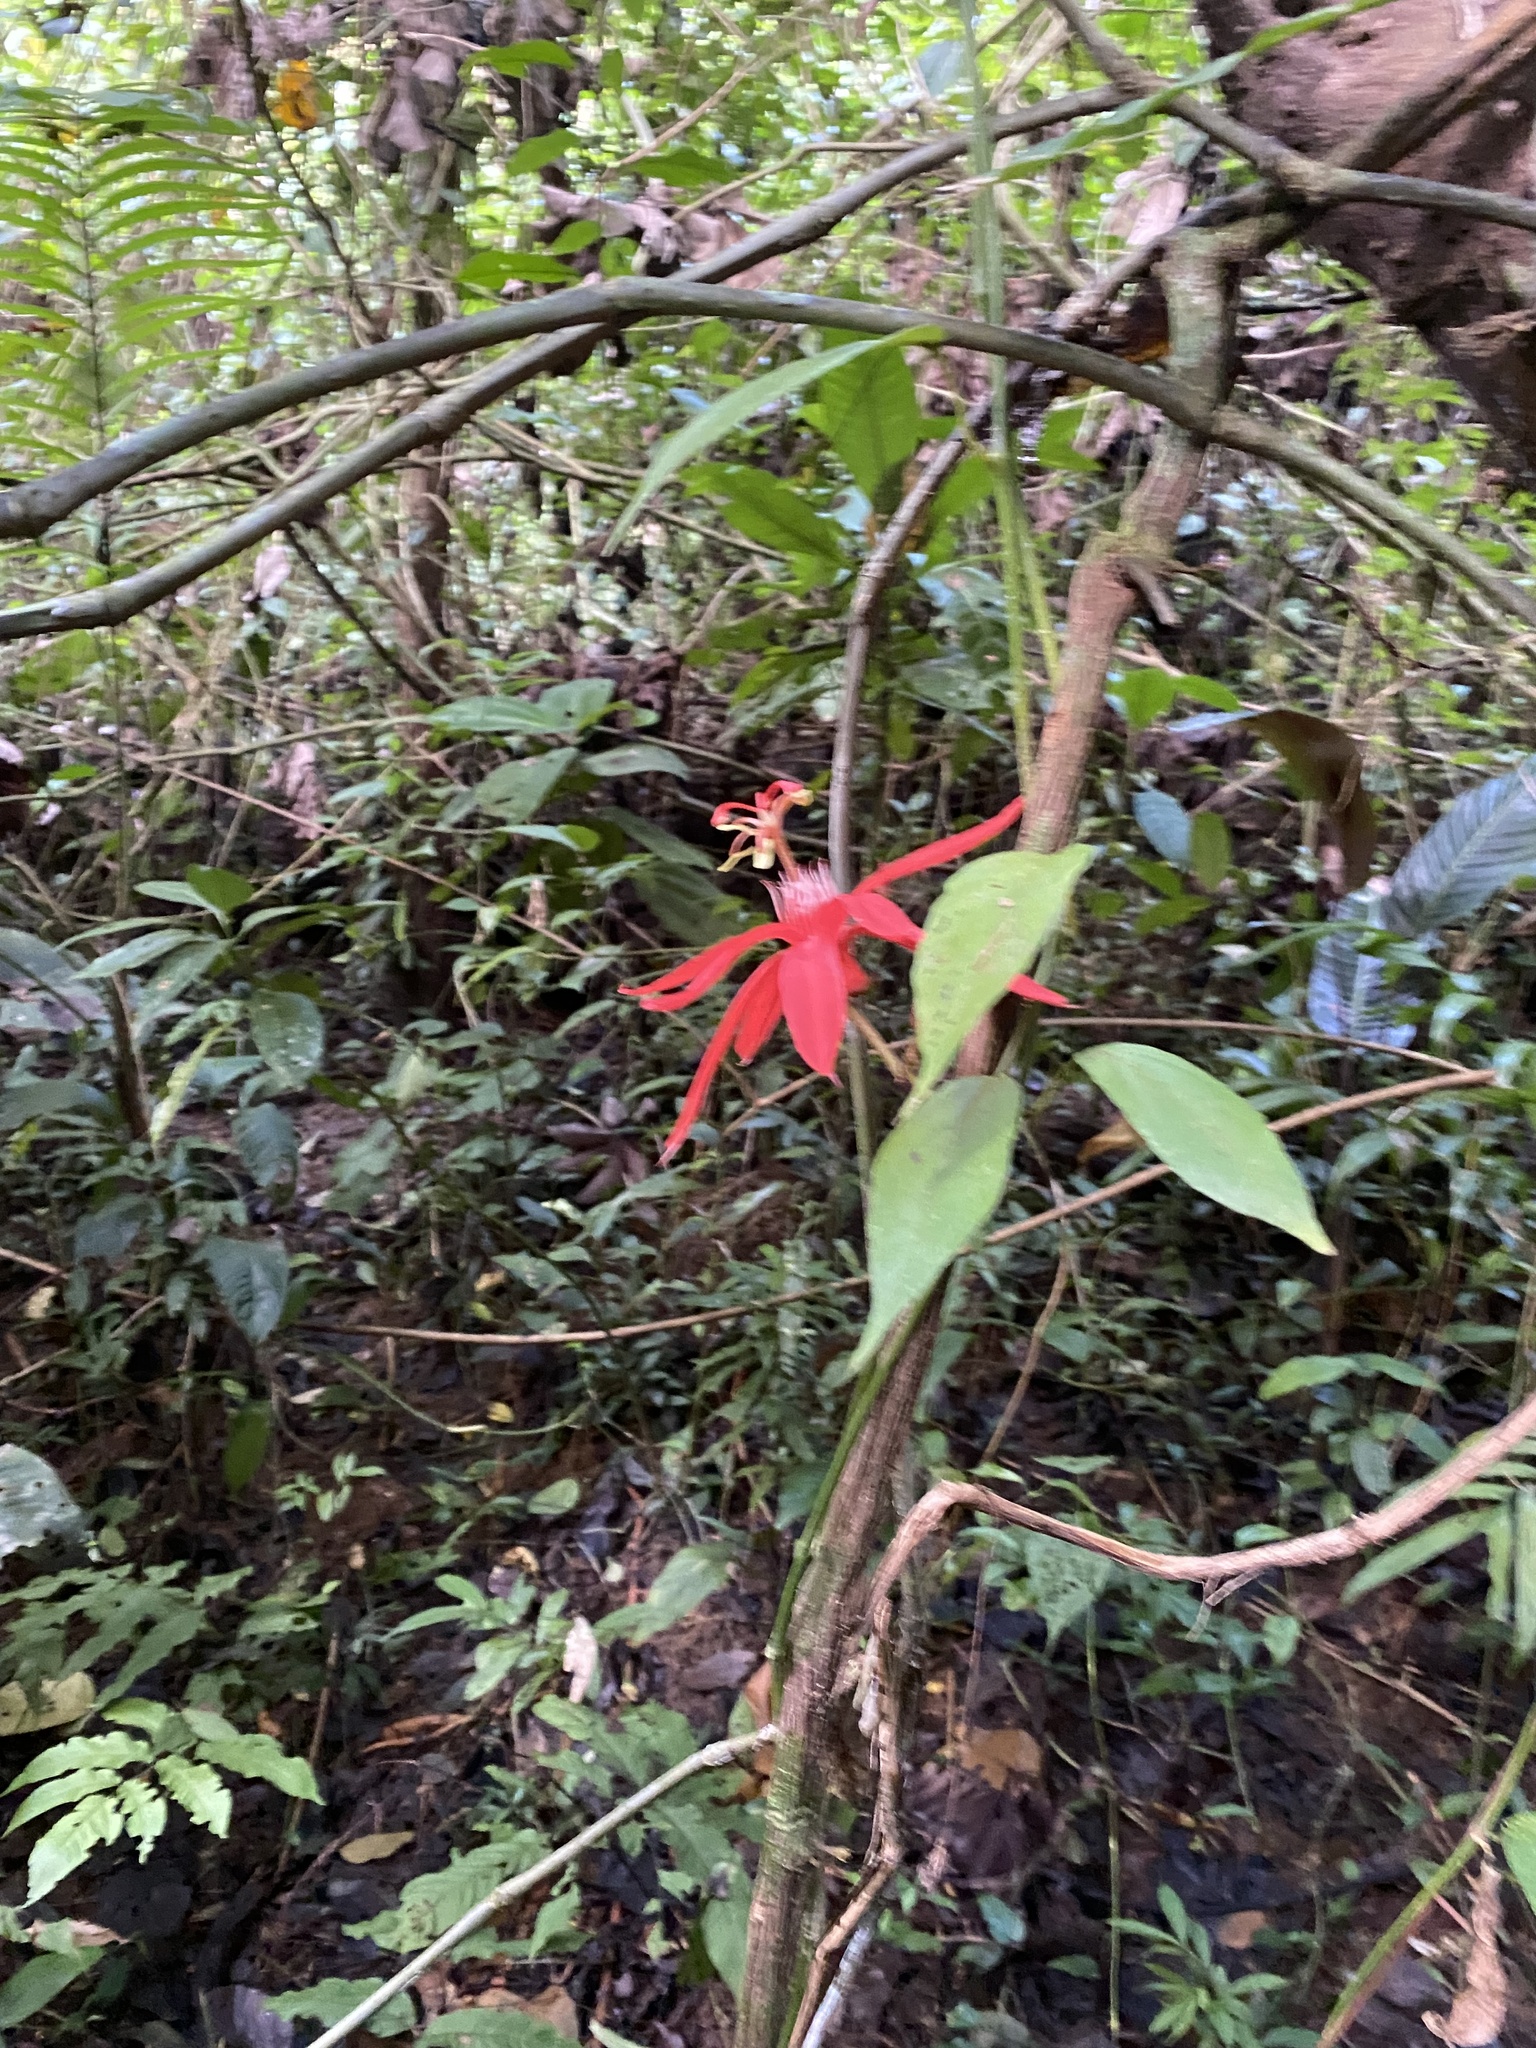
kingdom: Plantae
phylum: Tracheophyta
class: Magnoliopsida
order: Malpighiales
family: Passifloraceae
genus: Passiflora
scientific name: Passiflora vitifolia
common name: Perfumed passionflower
